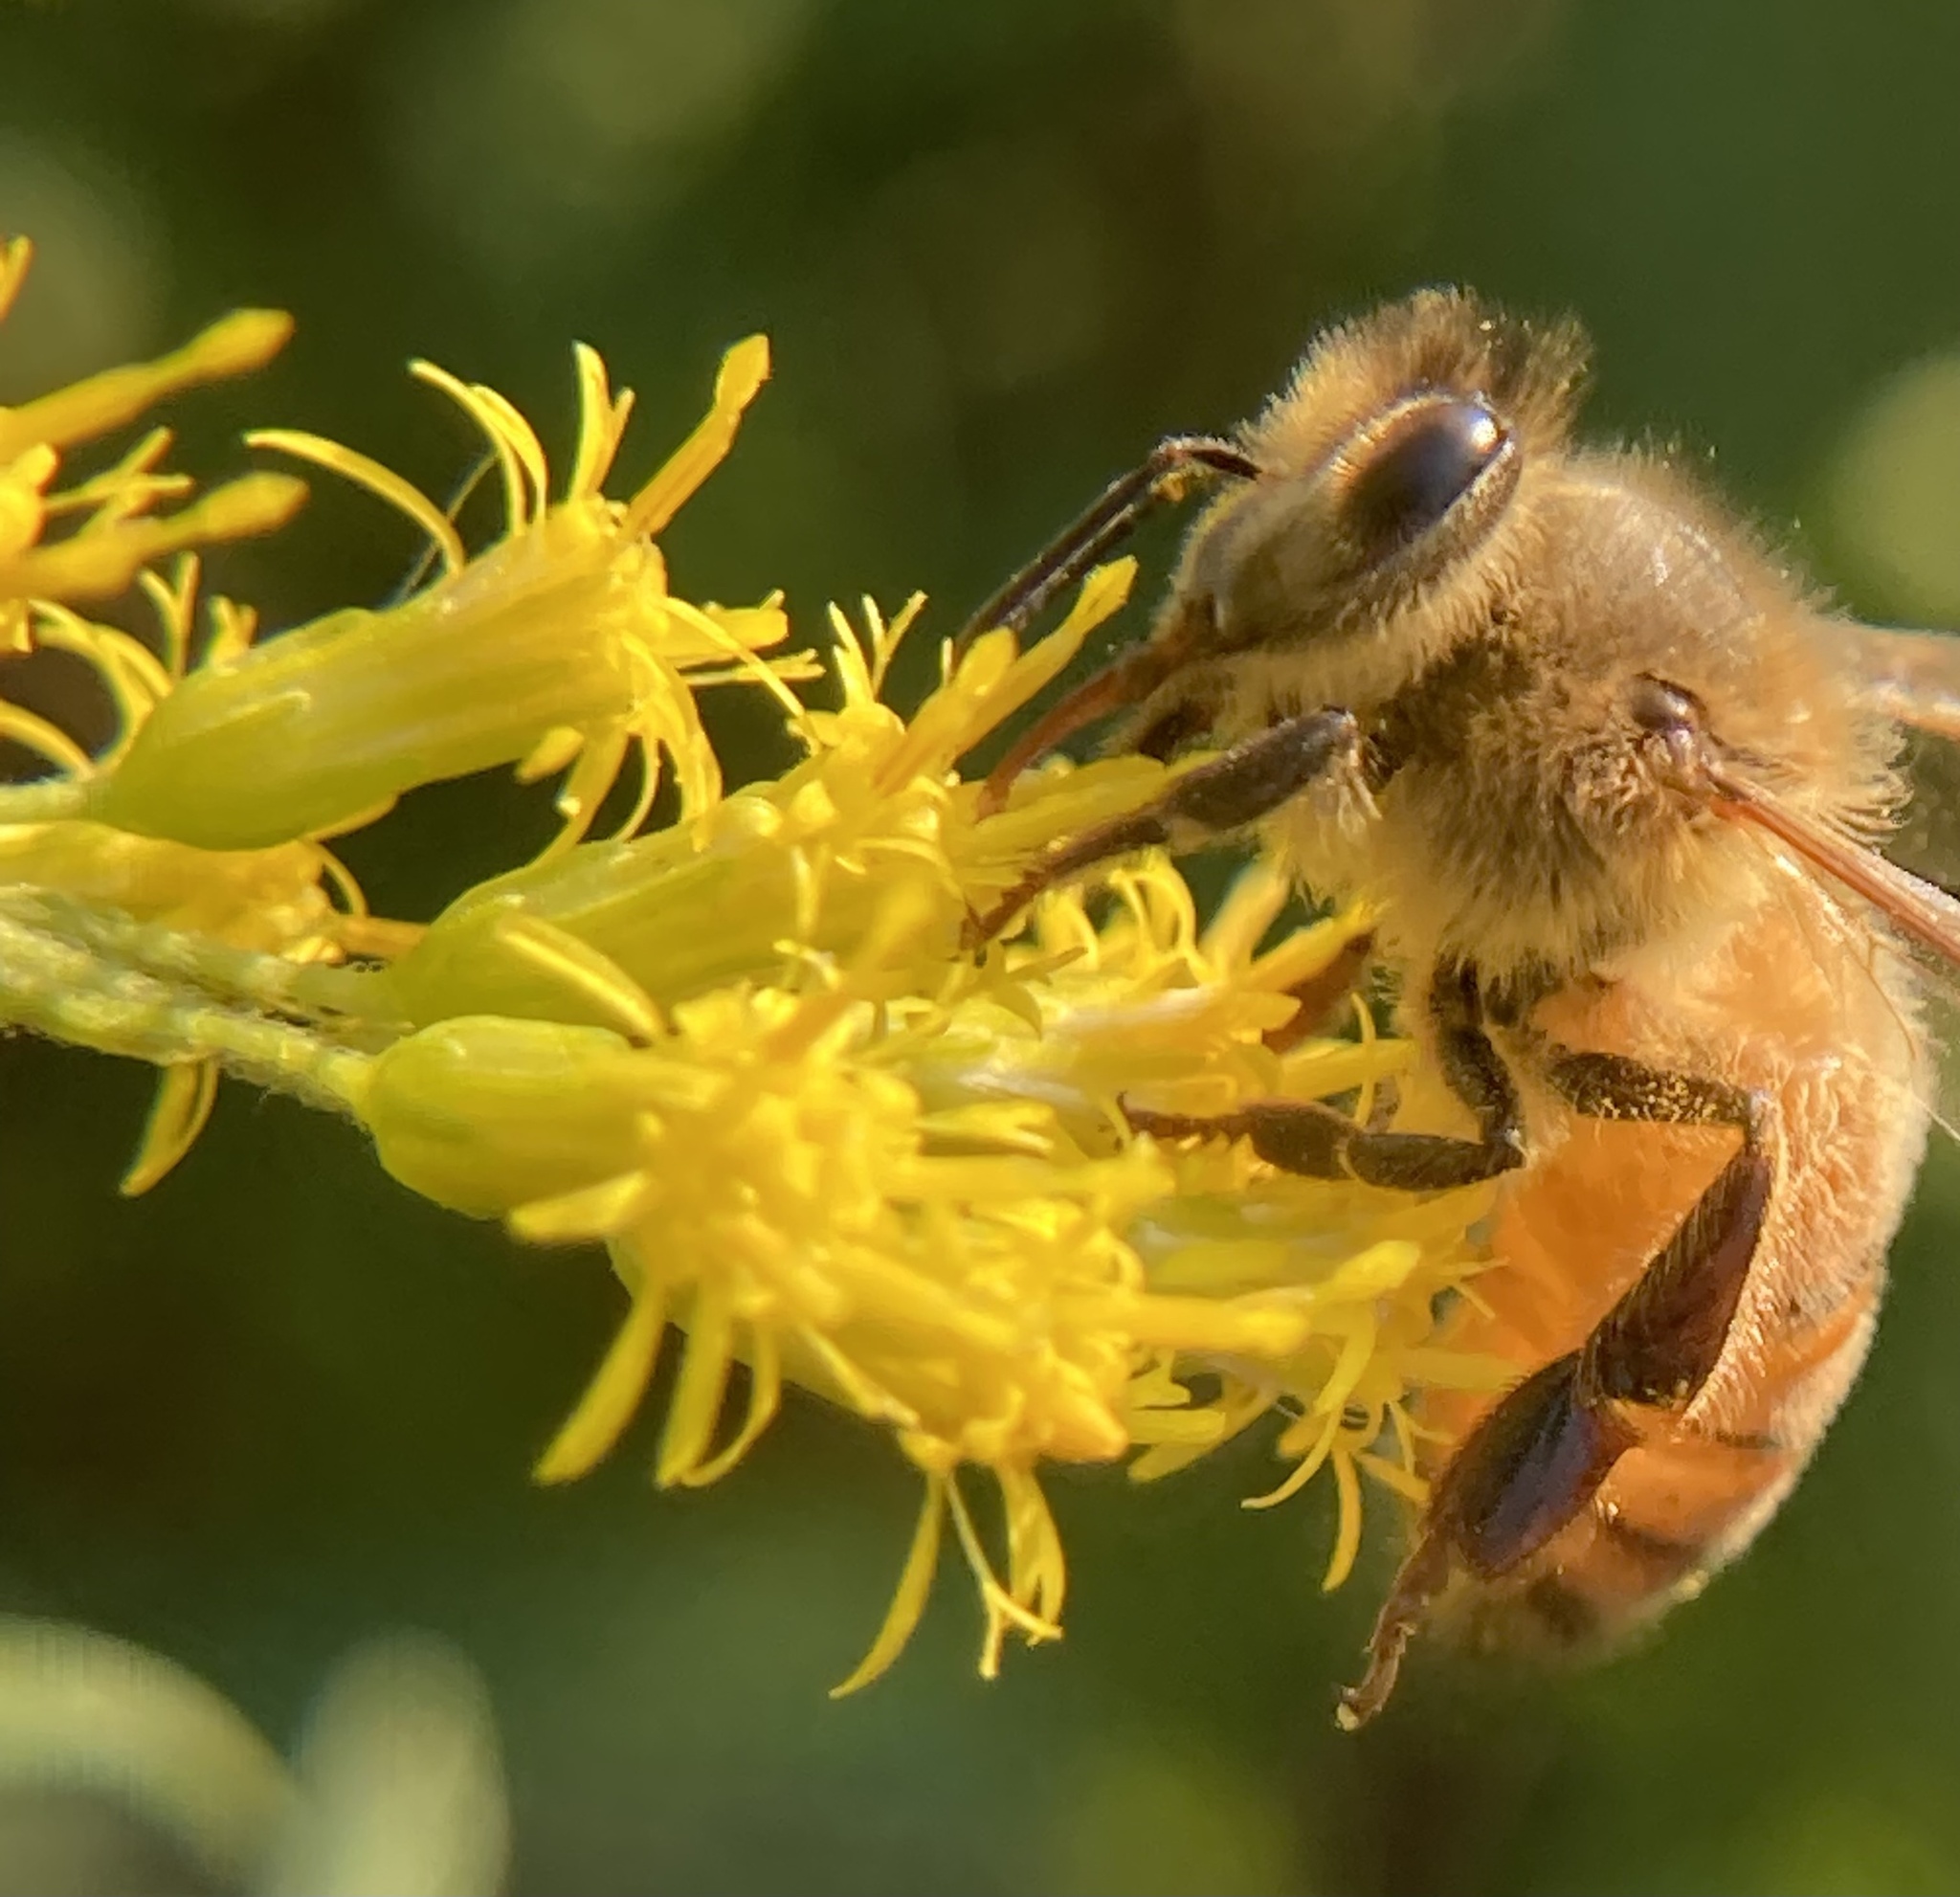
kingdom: Animalia
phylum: Arthropoda
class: Insecta
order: Hymenoptera
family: Apidae
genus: Apis
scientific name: Apis mellifera
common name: Honey bee
